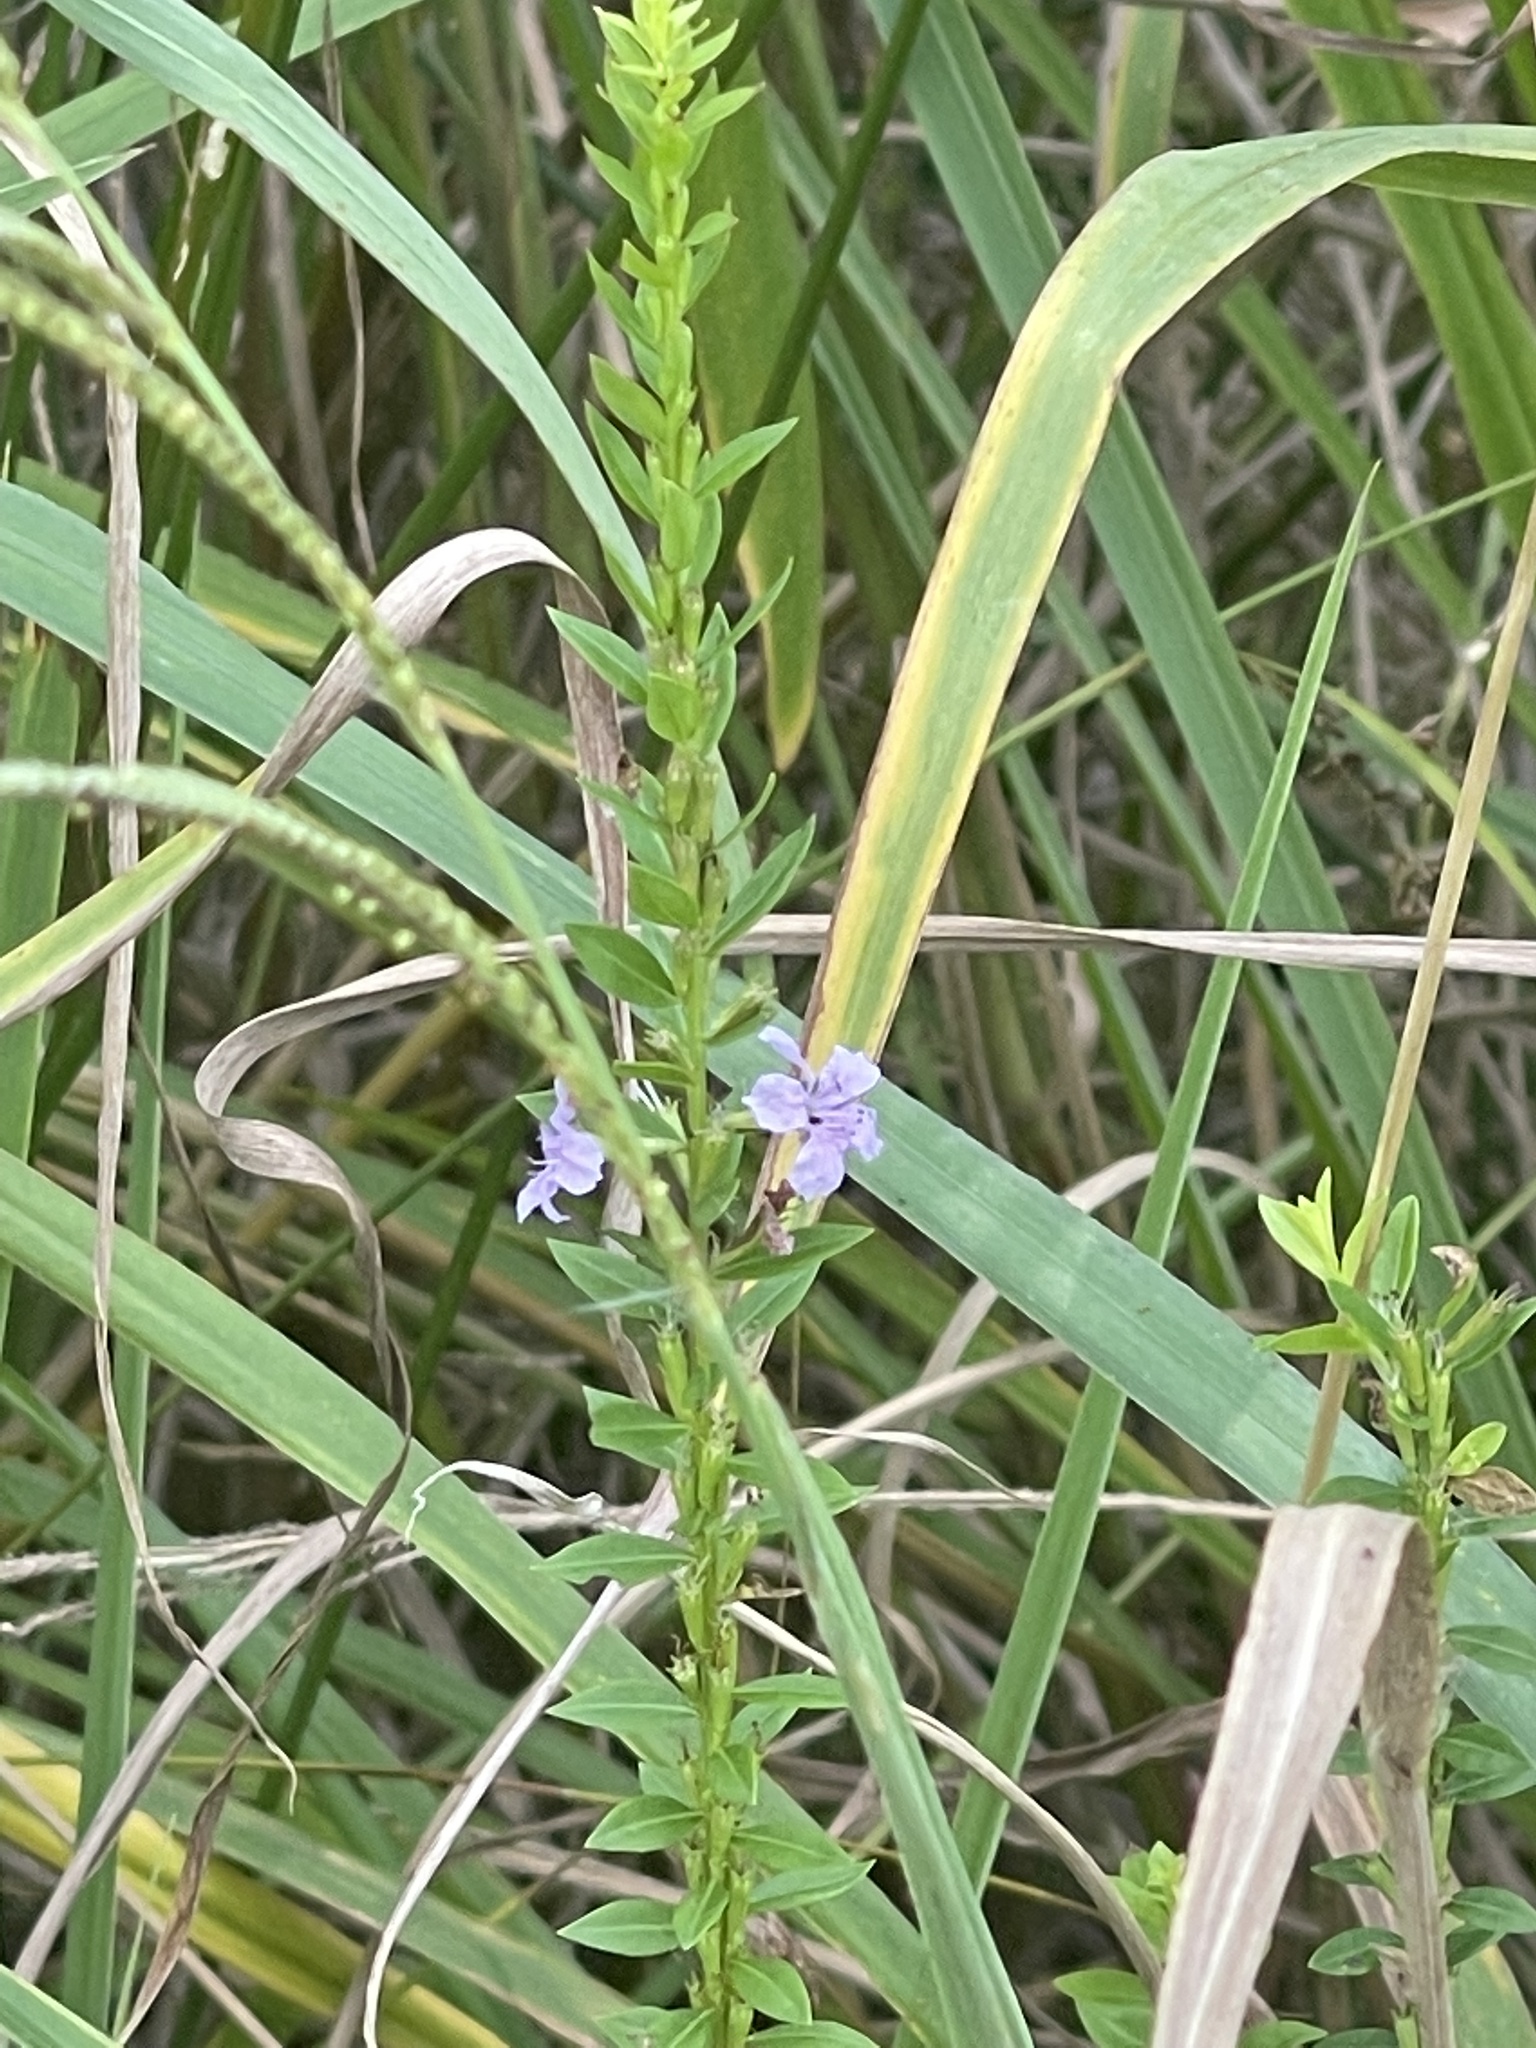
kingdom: Plantae
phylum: Tracheophyta
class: Magnoliopsida
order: Myrtales
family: Lythraceae
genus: Lythrum
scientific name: Lythrum alatum
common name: Winged loosestrife
